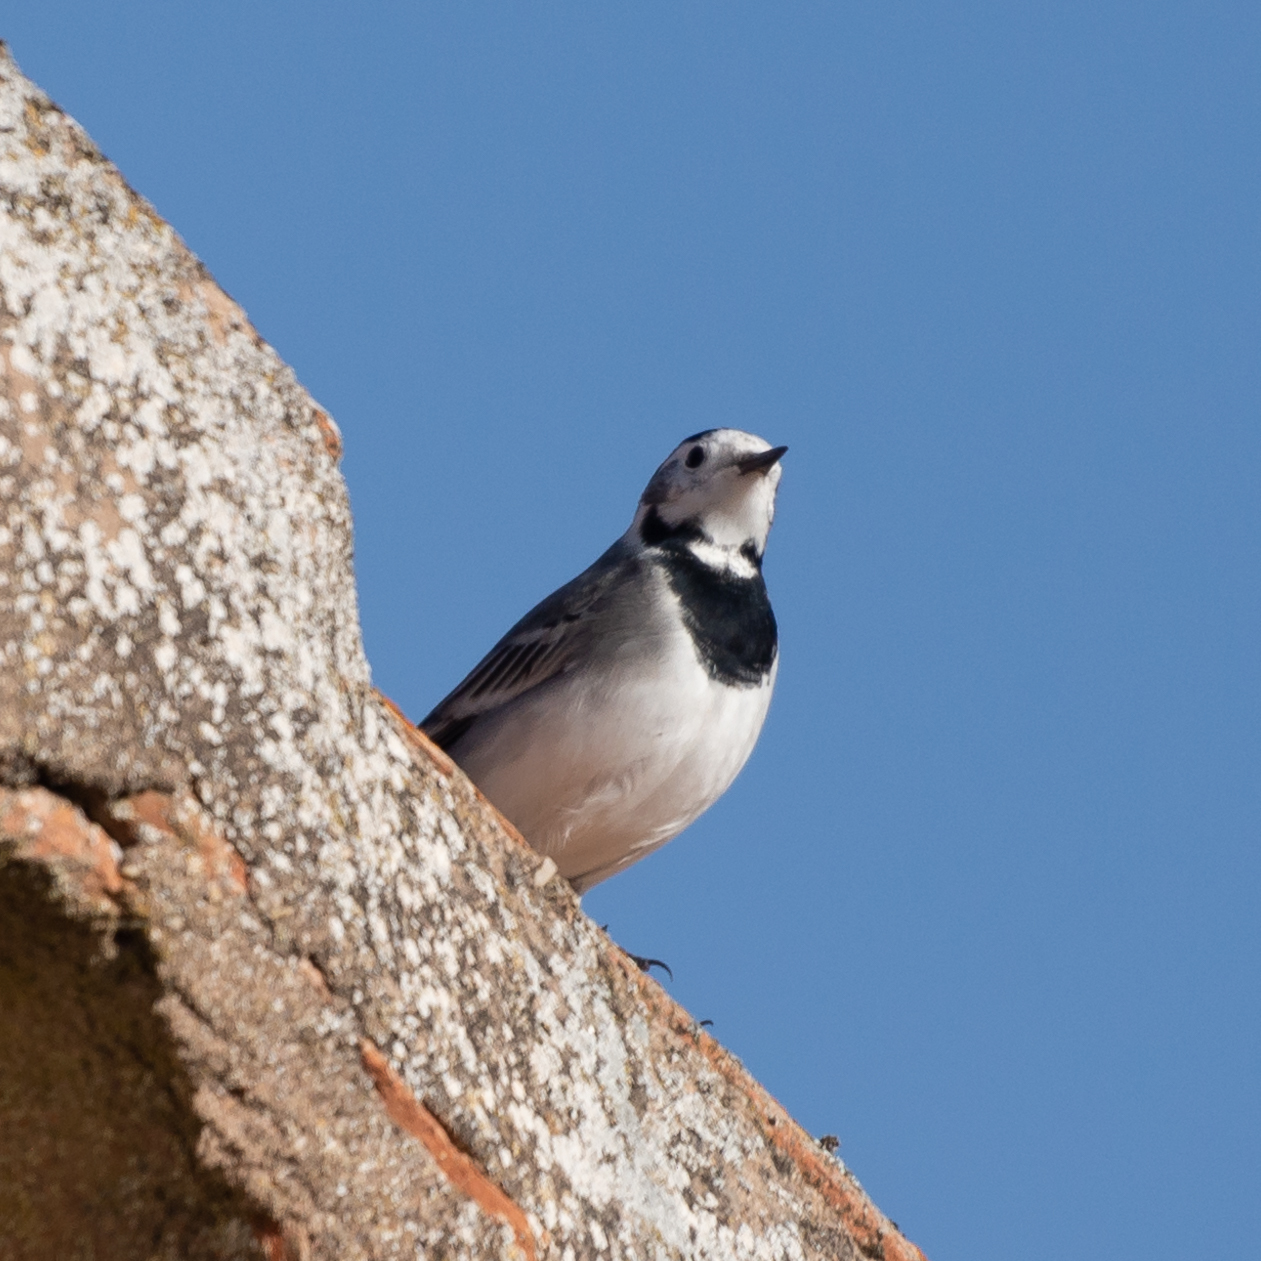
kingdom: Animalia
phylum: Chordata
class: Aves
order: Passeriformes
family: Motacillidae
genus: Motacilla
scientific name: Motacilla alba
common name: White wagtail
